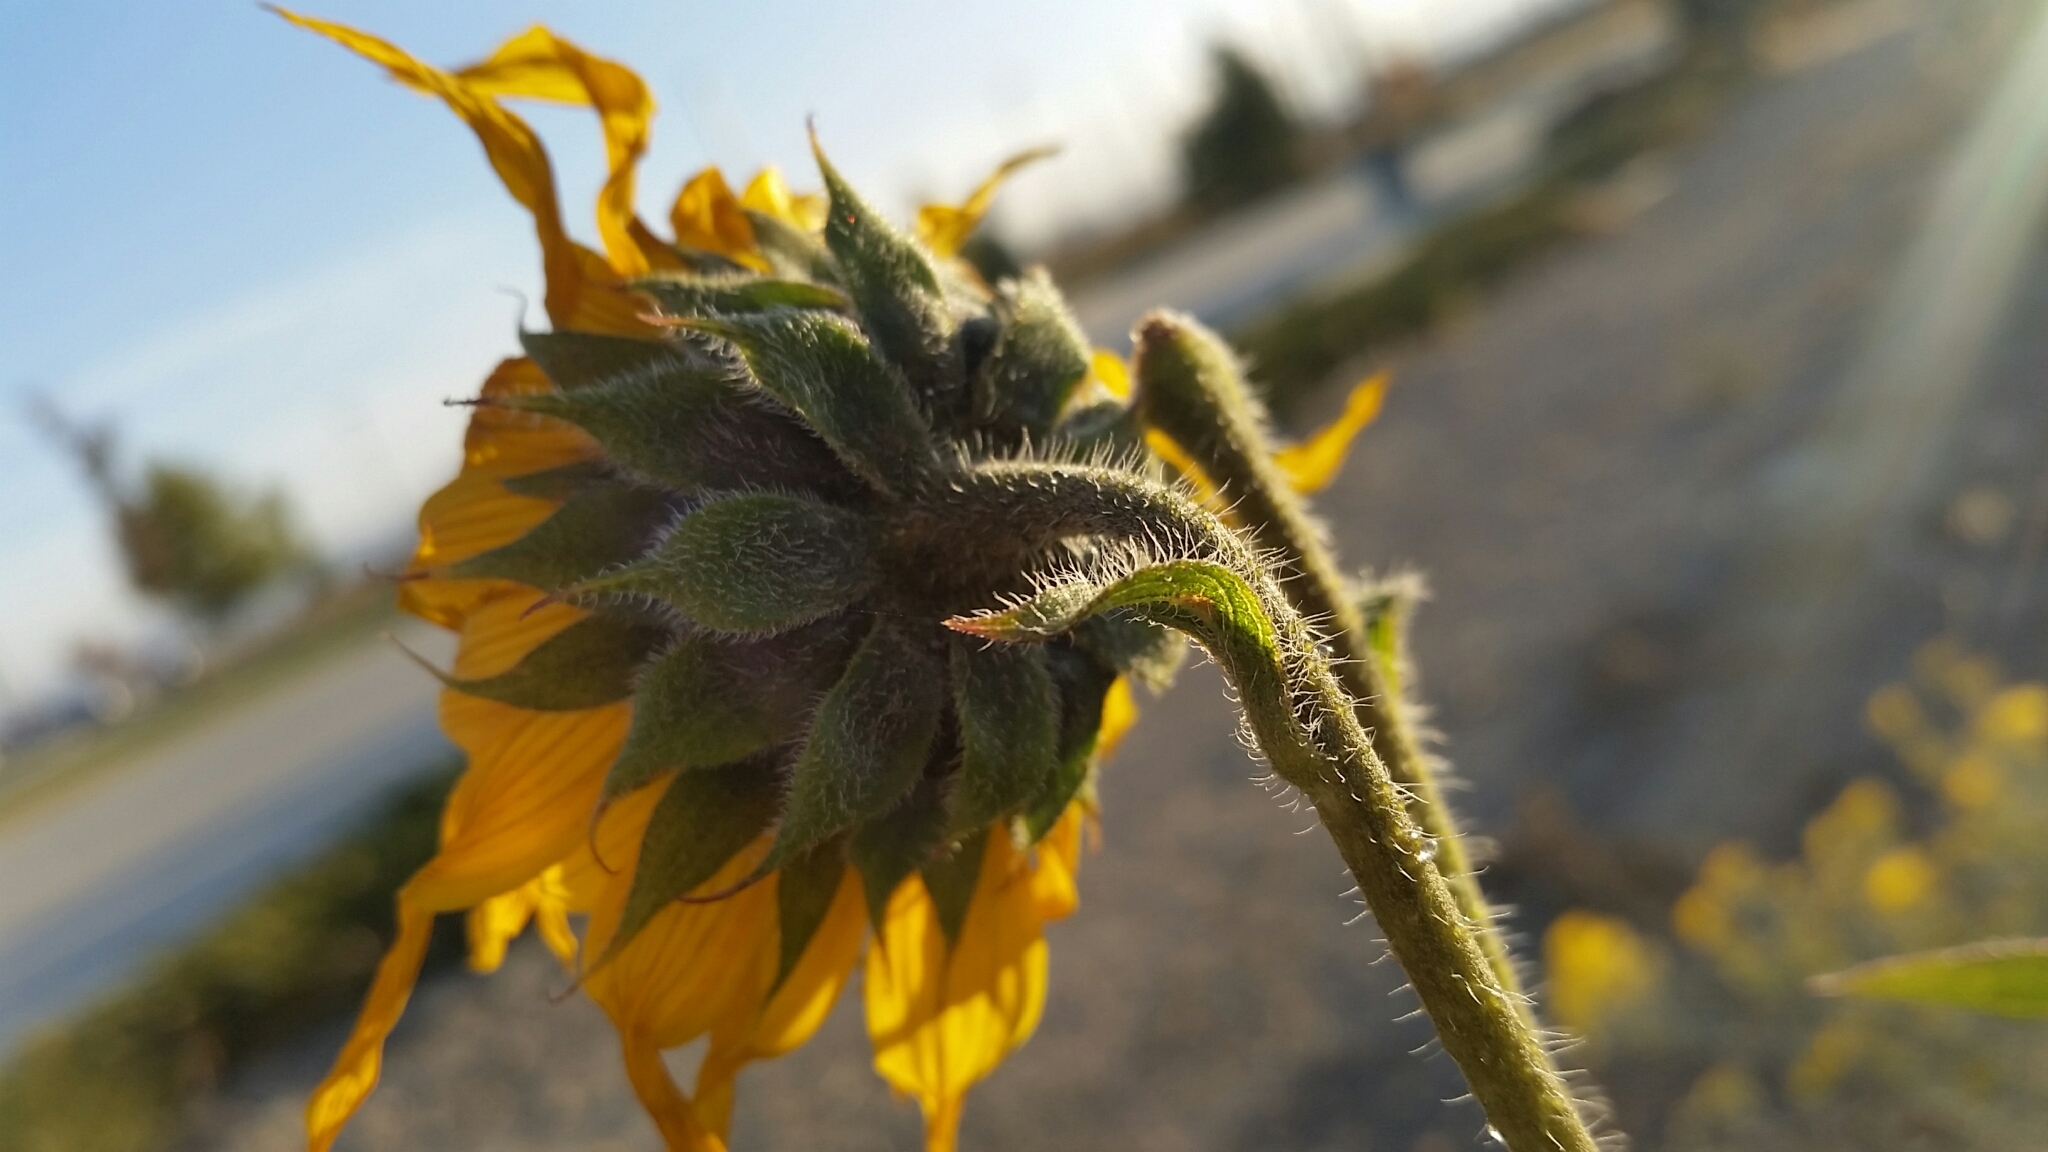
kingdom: Plantae
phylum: Tracheophyta
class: Magnoliopsida
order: Asterales
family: Asteraceae
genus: Helianthus
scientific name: Helianthus annuus
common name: Sunflower
